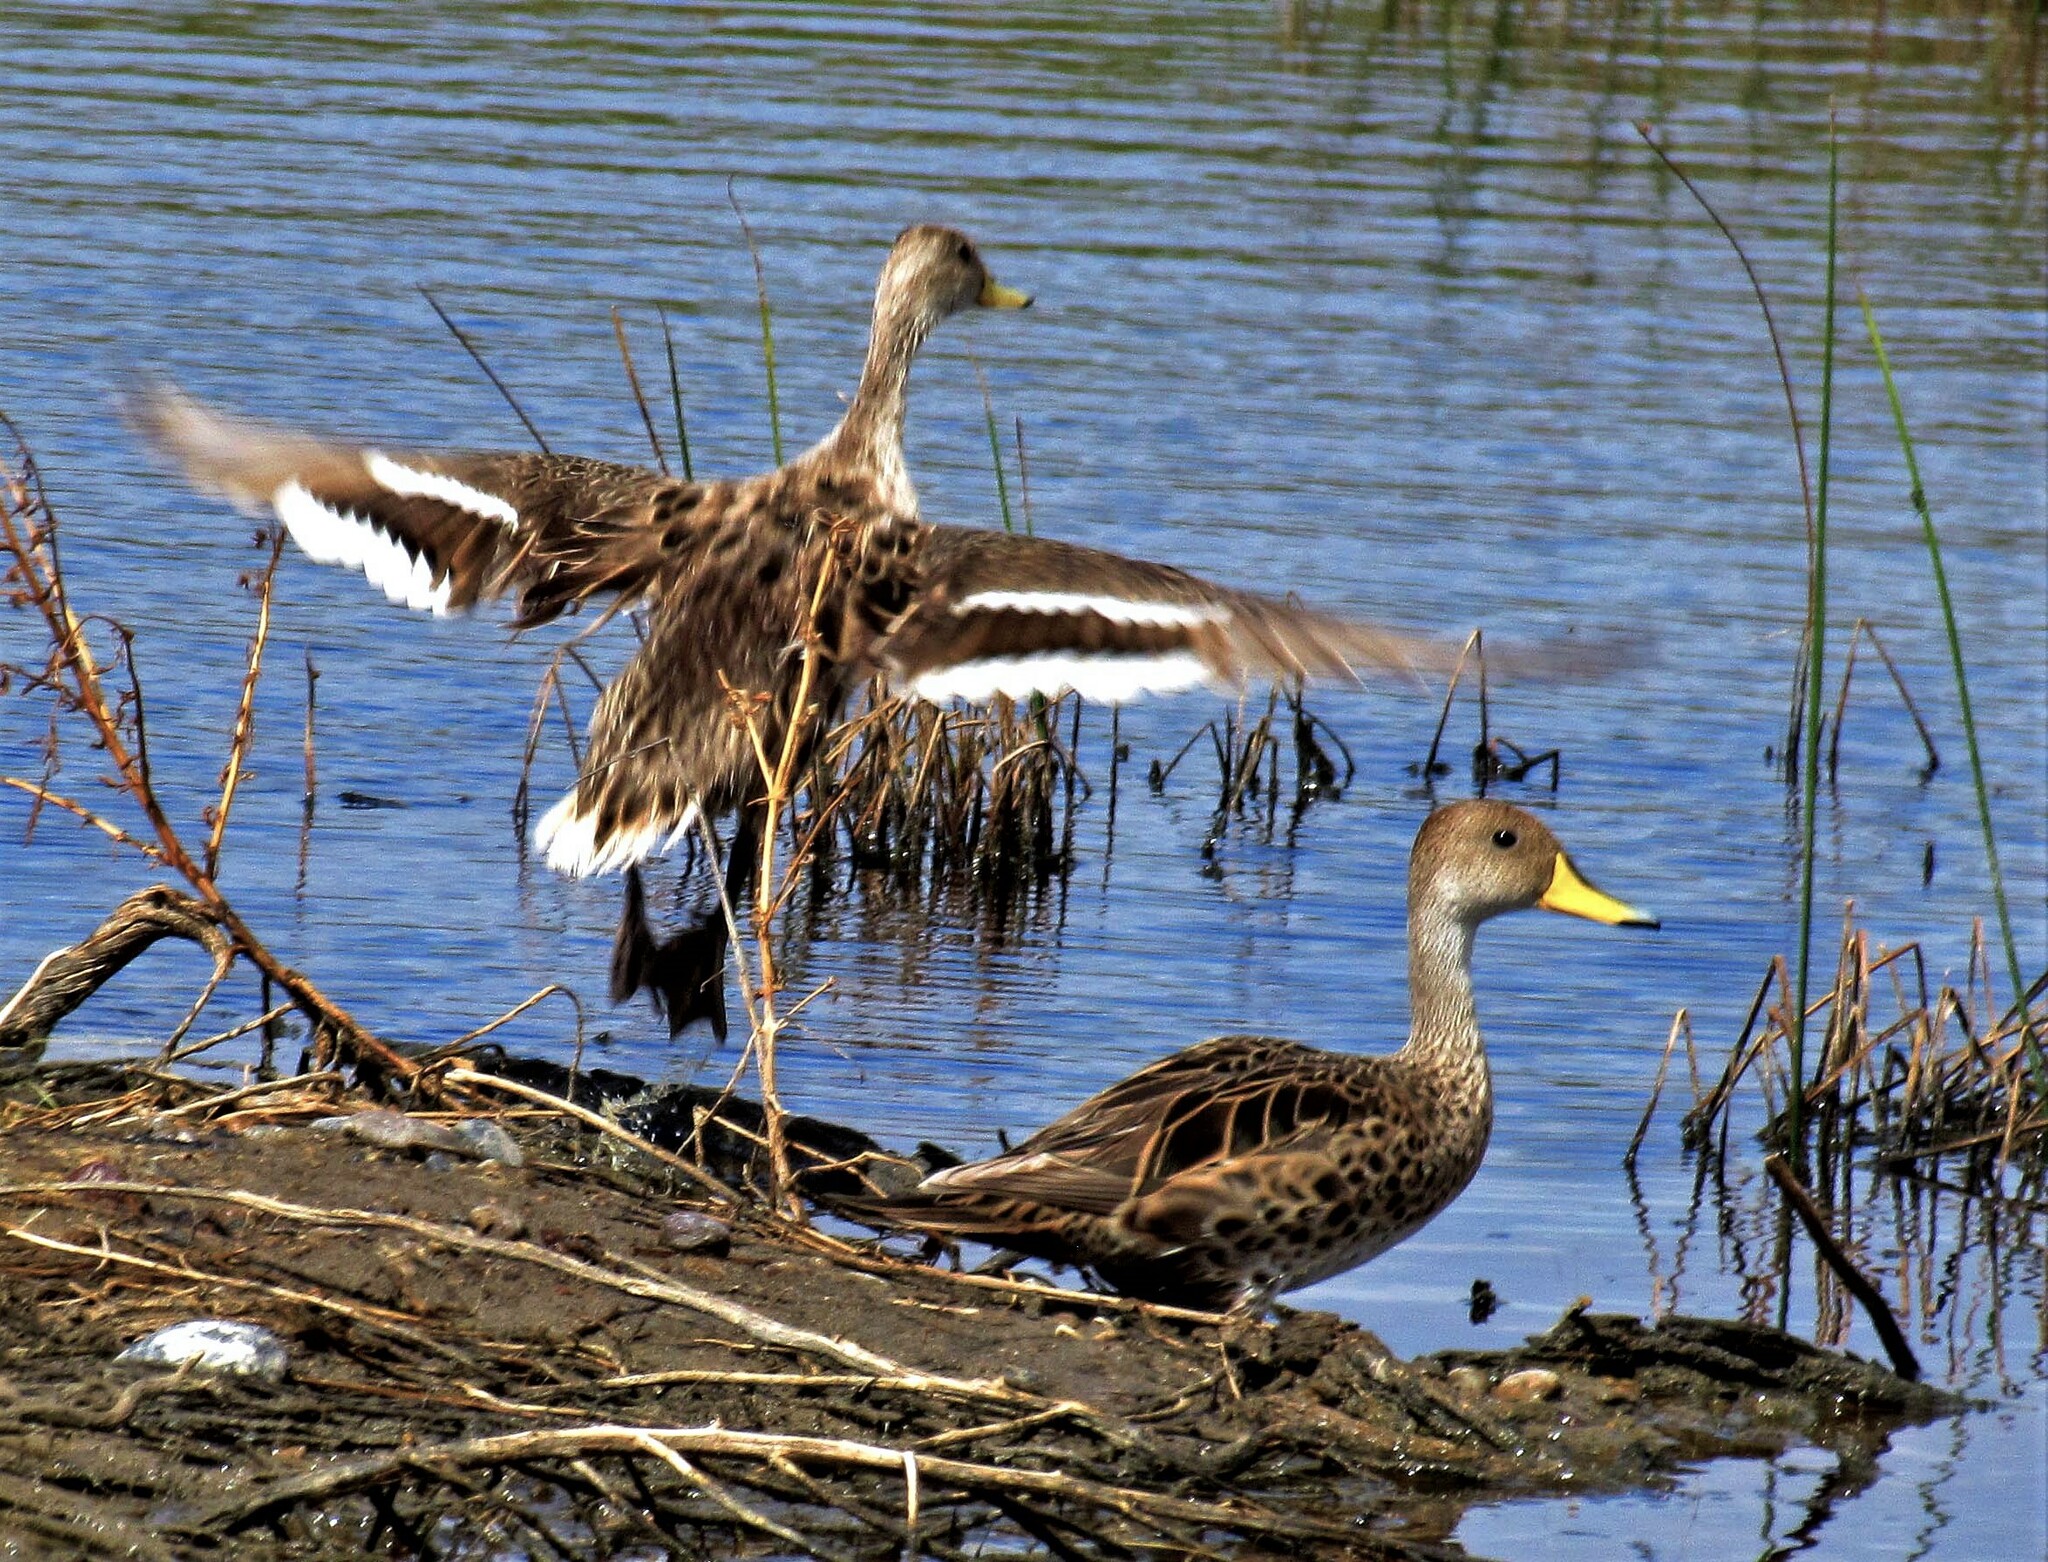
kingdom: Animalia
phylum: Chordata
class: Aves
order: Anseriformes
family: Anatidae
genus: Anas
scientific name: Anas georgica
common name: Yellow-billed pintail
